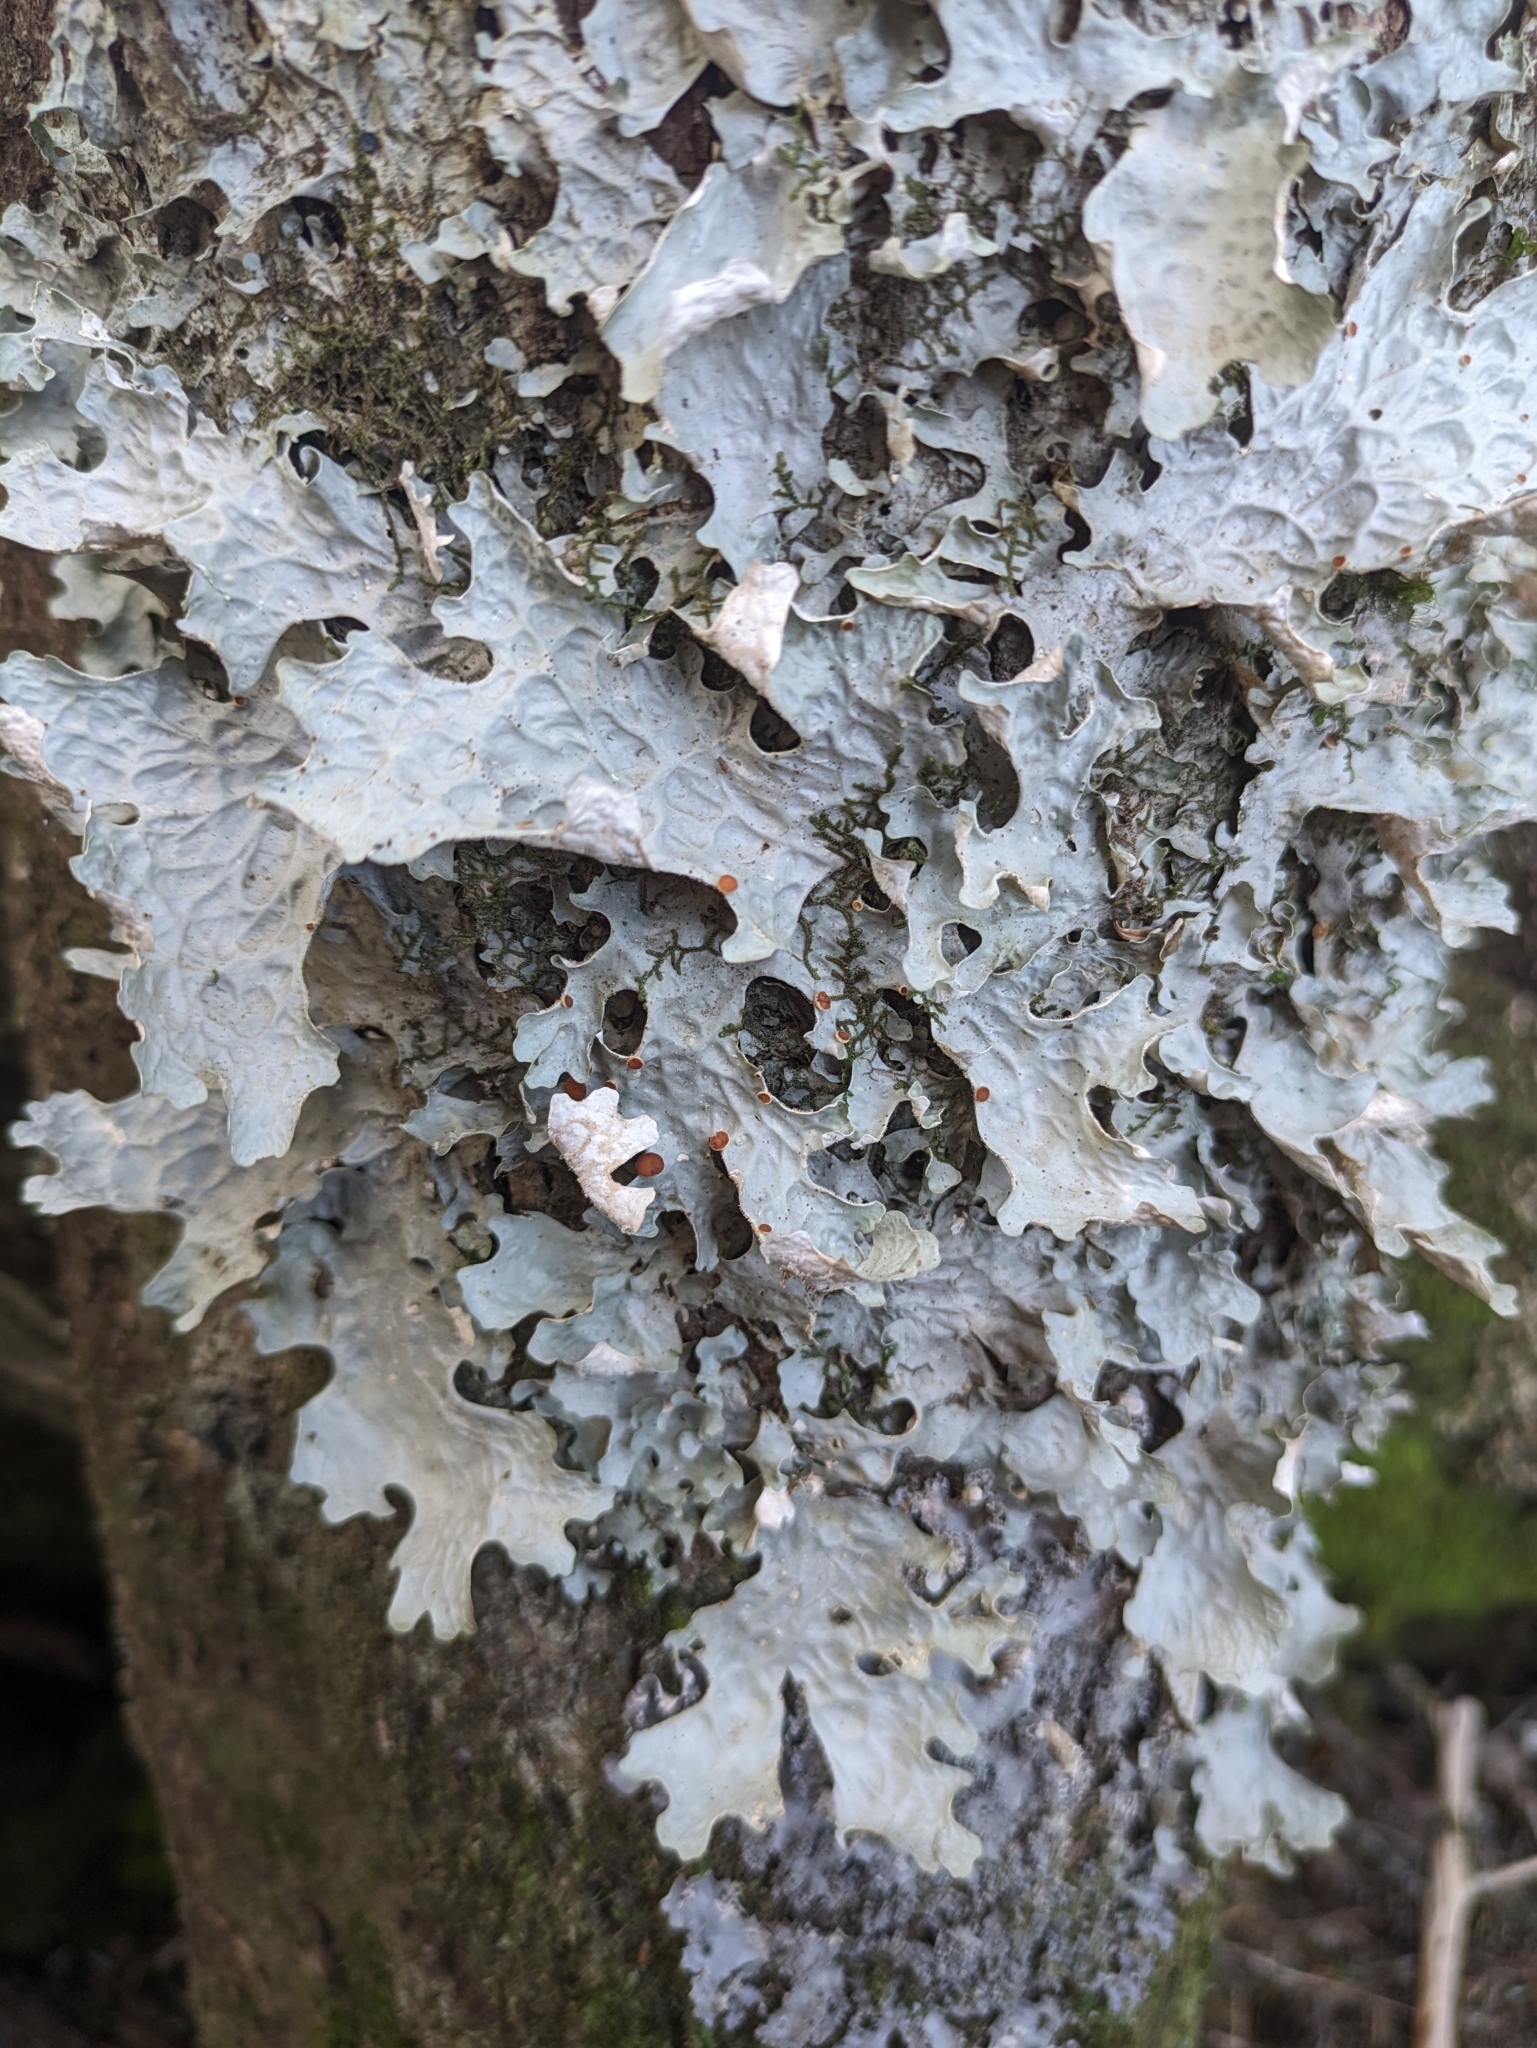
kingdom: Fungi
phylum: Ascomycota
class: Lecanoromycetes
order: Peltigerales
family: Lobariaceae
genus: Lobaria
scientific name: Lobaria linita
